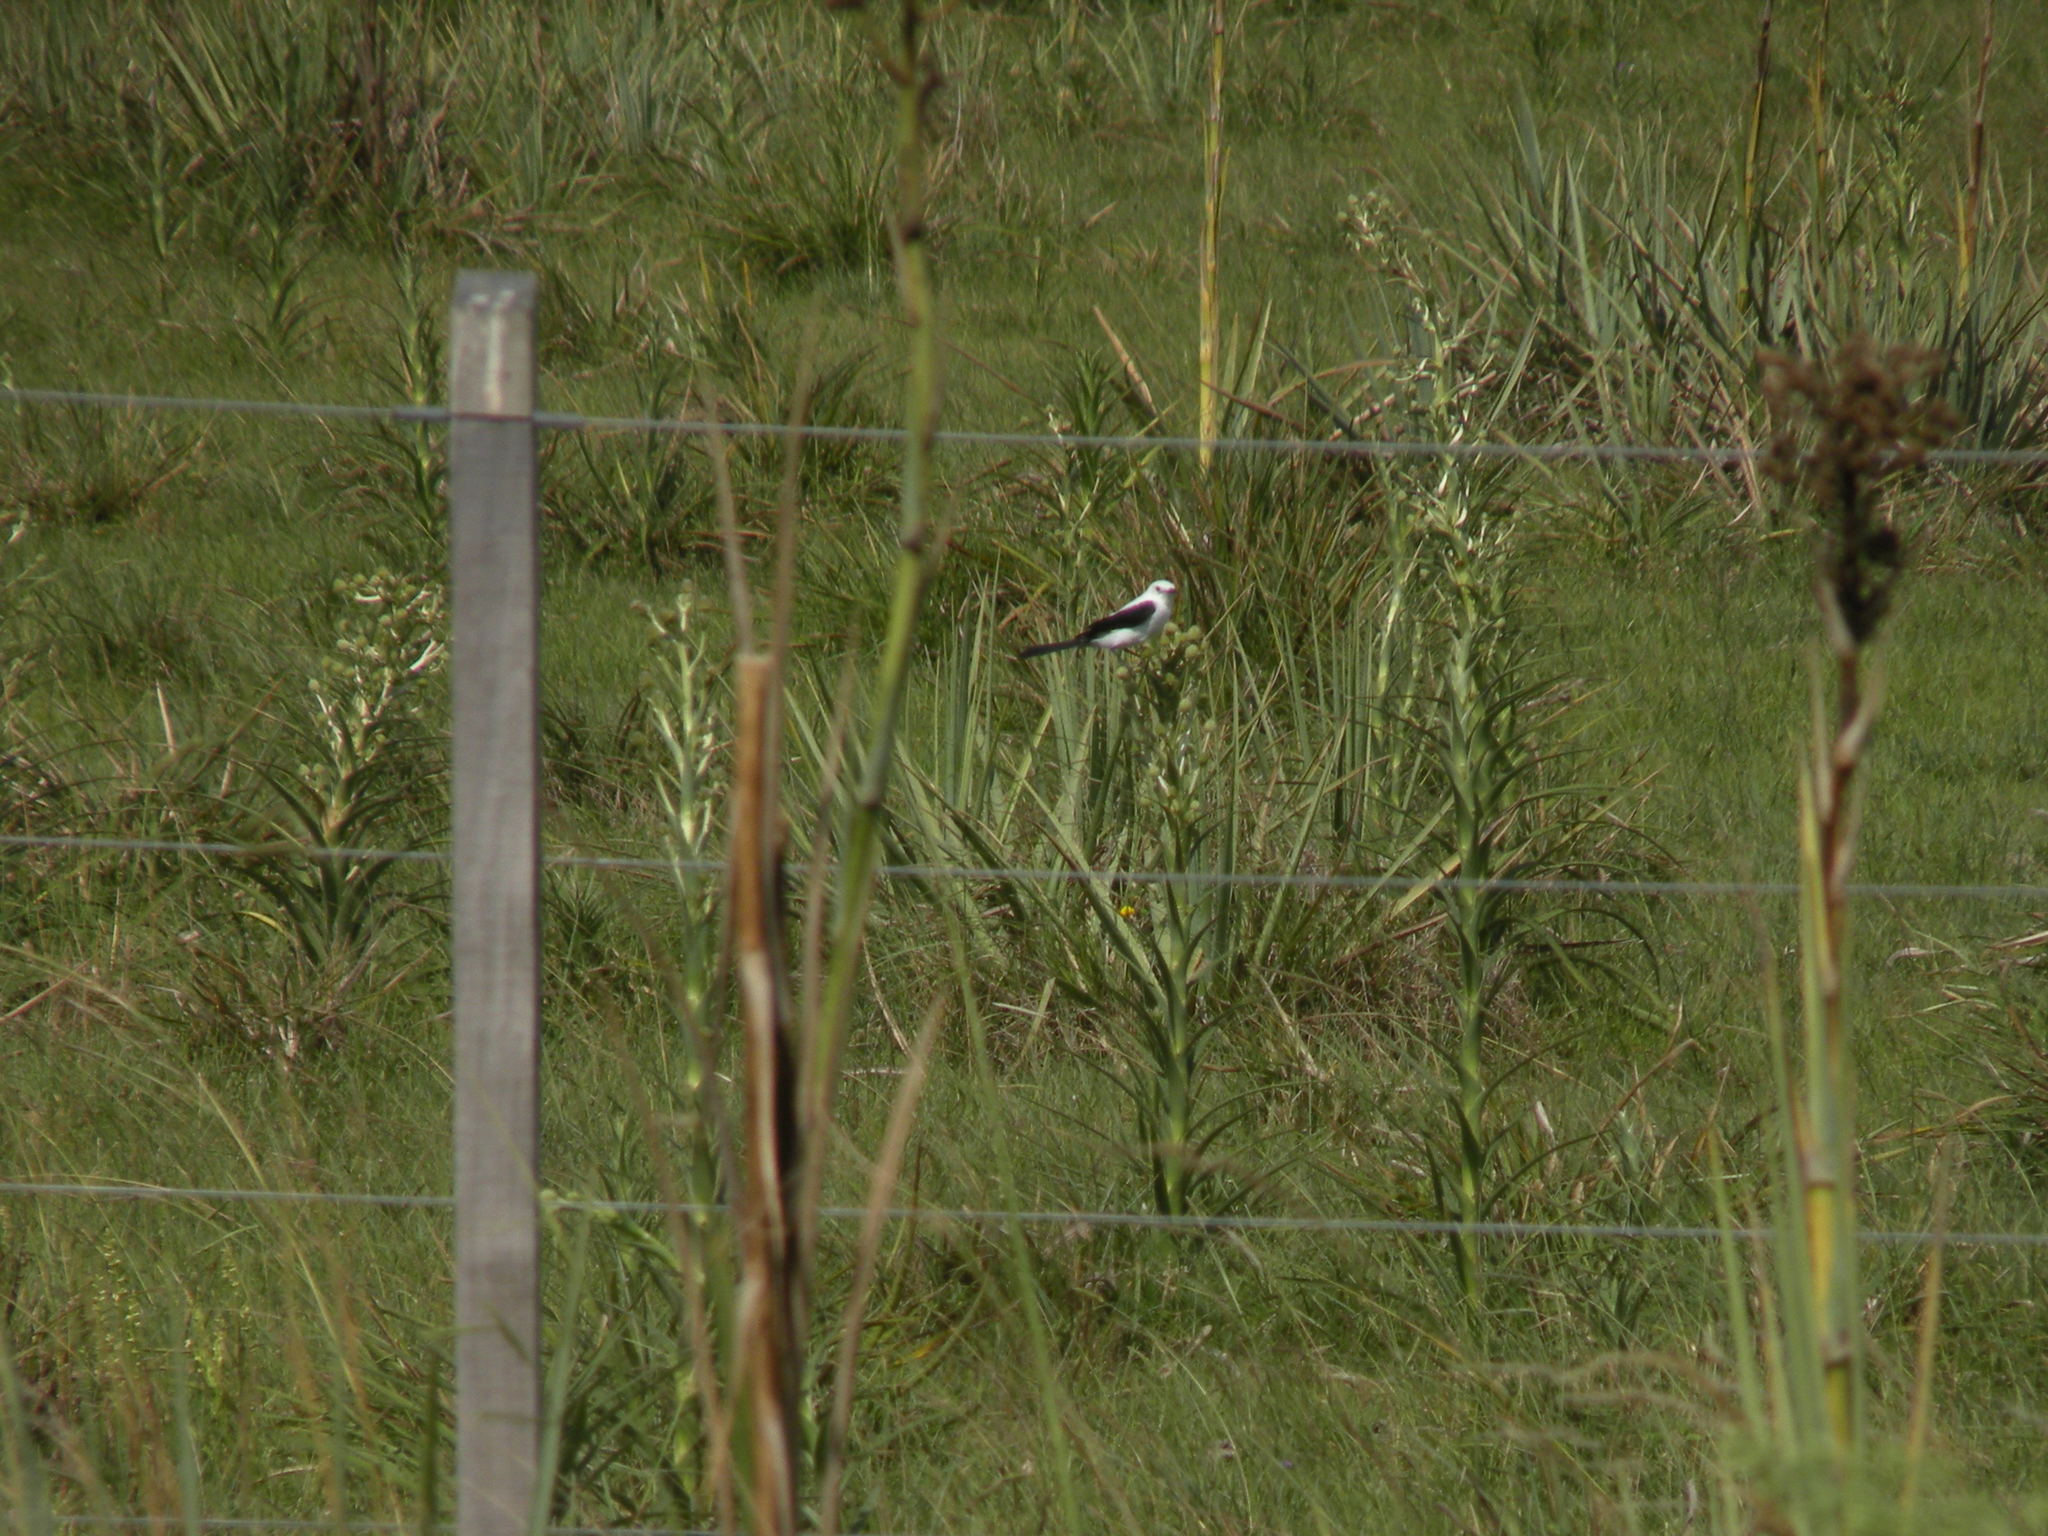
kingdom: Animalia
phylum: Chordata
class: Aves
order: Passeriformes
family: Tyrannidae
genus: Heteroxolmis
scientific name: Heteroxolmis dominicana
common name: Black-and-white monjita
